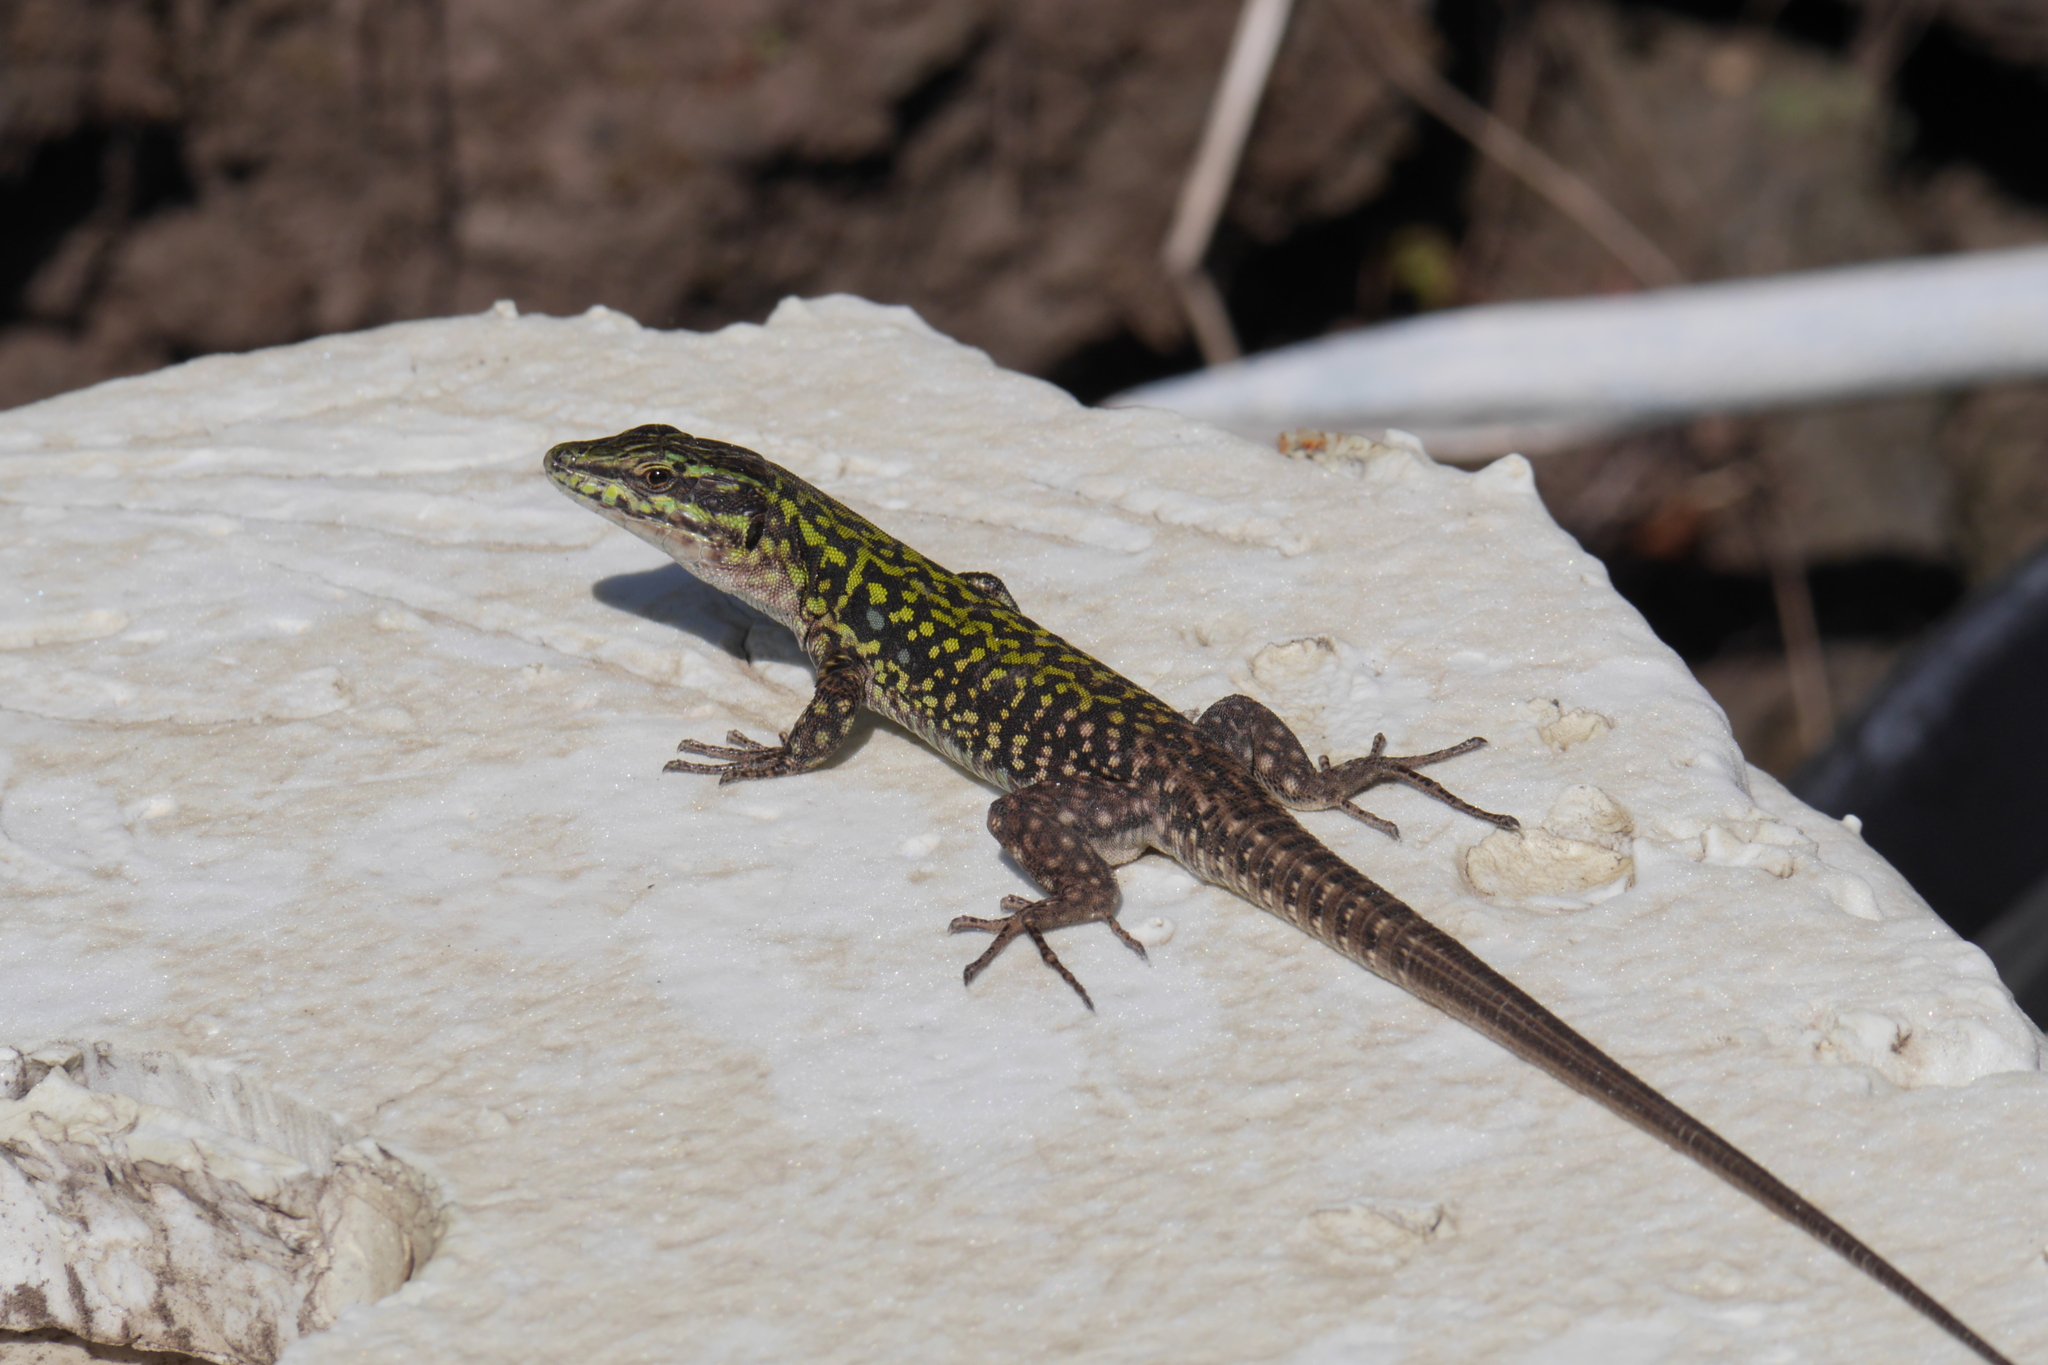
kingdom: Animalia
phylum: Chordata
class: Squamata
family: Lacertidae
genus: Podarcis
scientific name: Podarcis siculus
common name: Italian wall lizard
